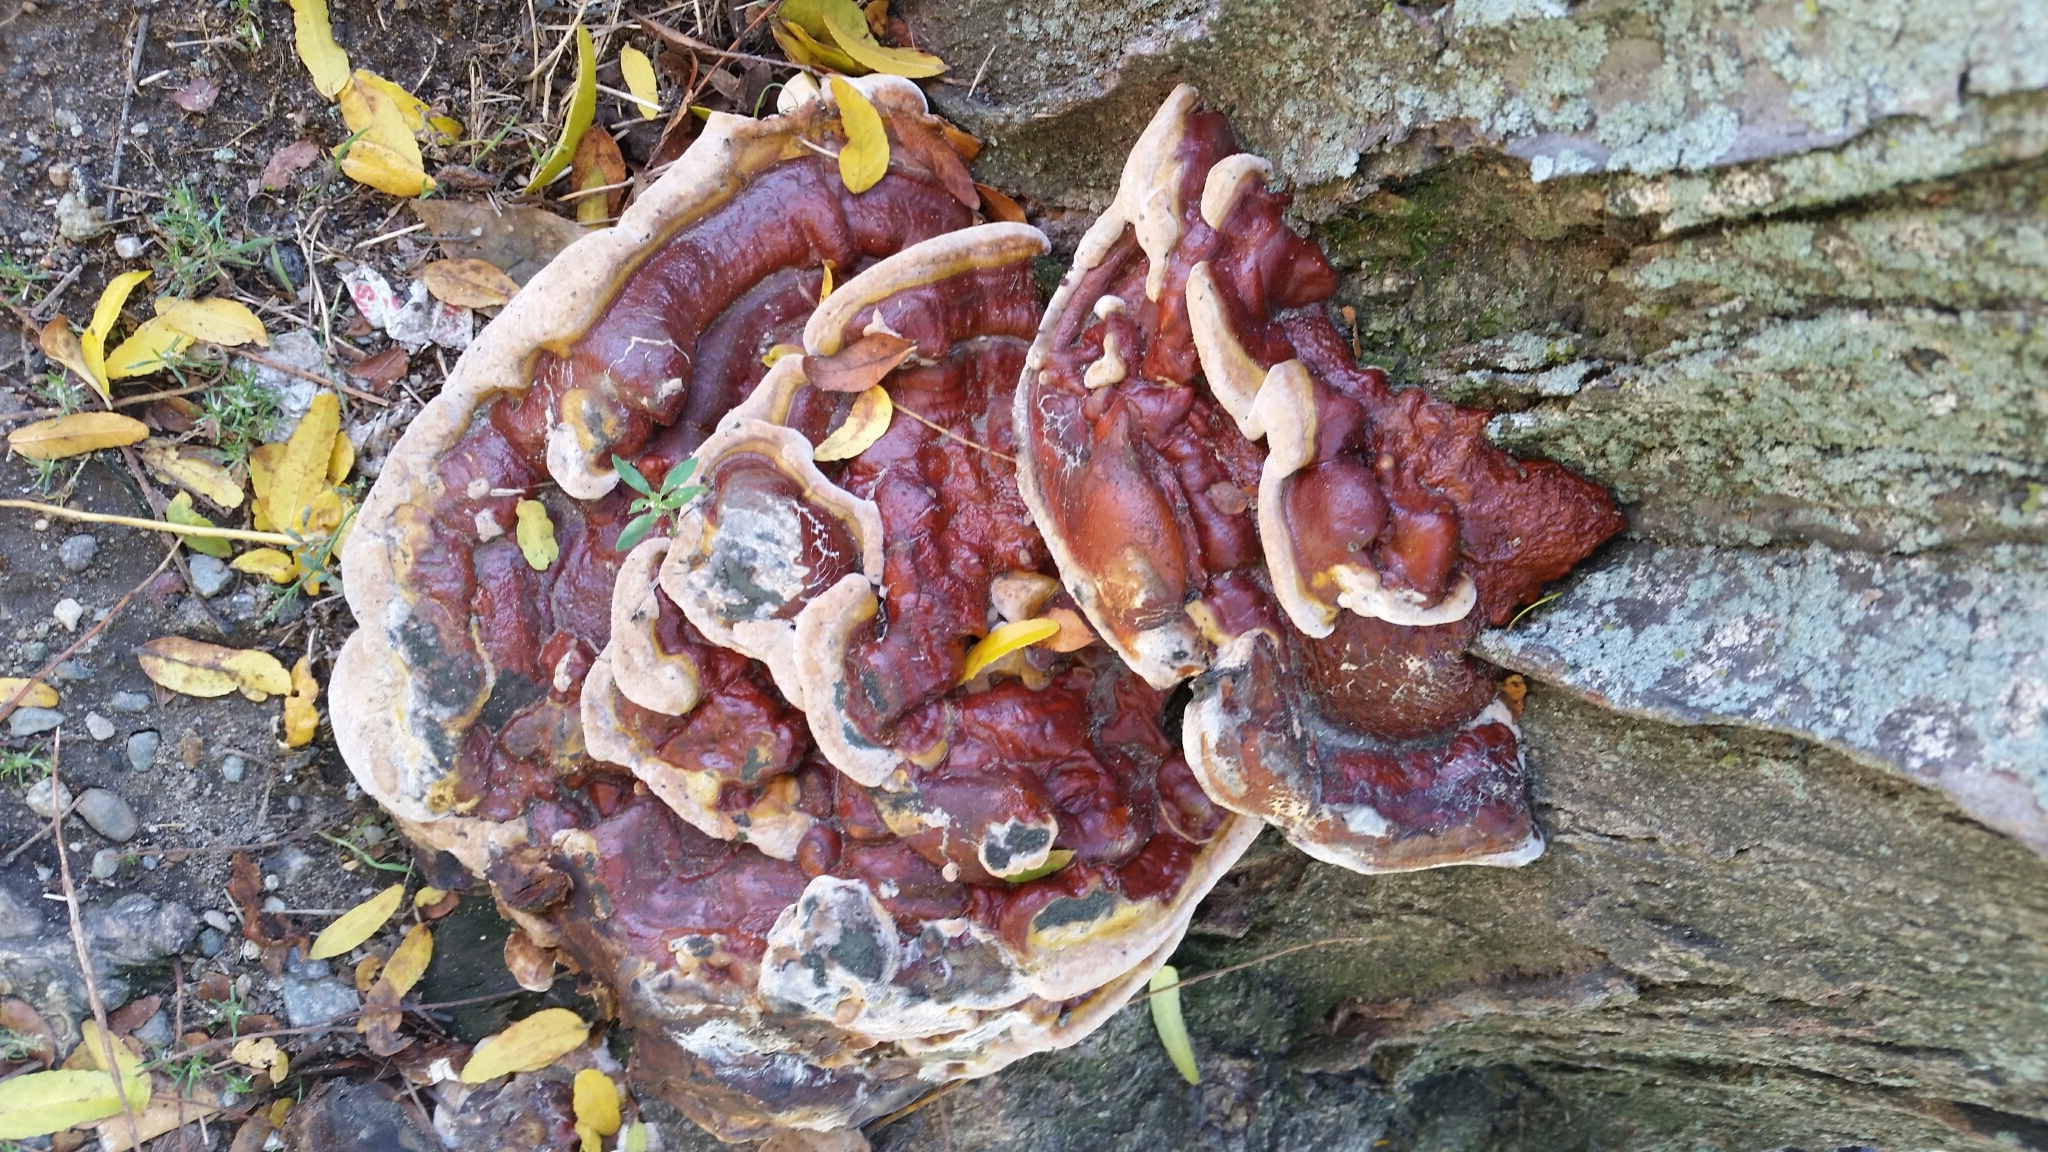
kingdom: Fungi
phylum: Basidiomycota
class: Agaricomycetes
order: Polyporales
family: Polyporaceae
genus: Ganoderma
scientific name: Ganoderma resinaceum
